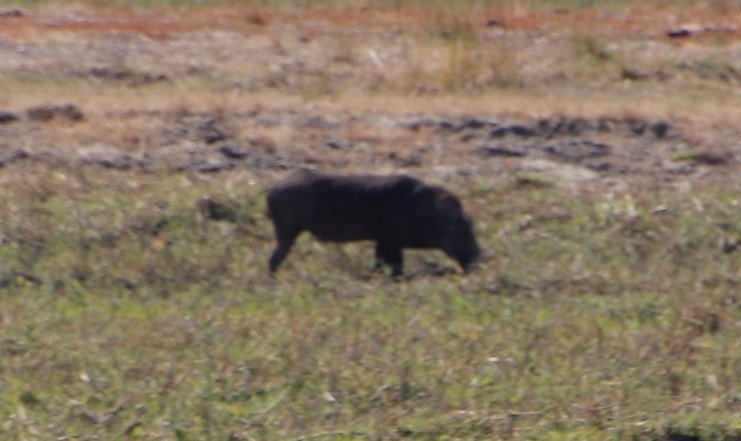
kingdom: Animalia
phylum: Chordata
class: Mammalia
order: Artiodactyla
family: Suidae
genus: Phacochoerus
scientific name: Phacochoerus africanus
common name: Common warthog
